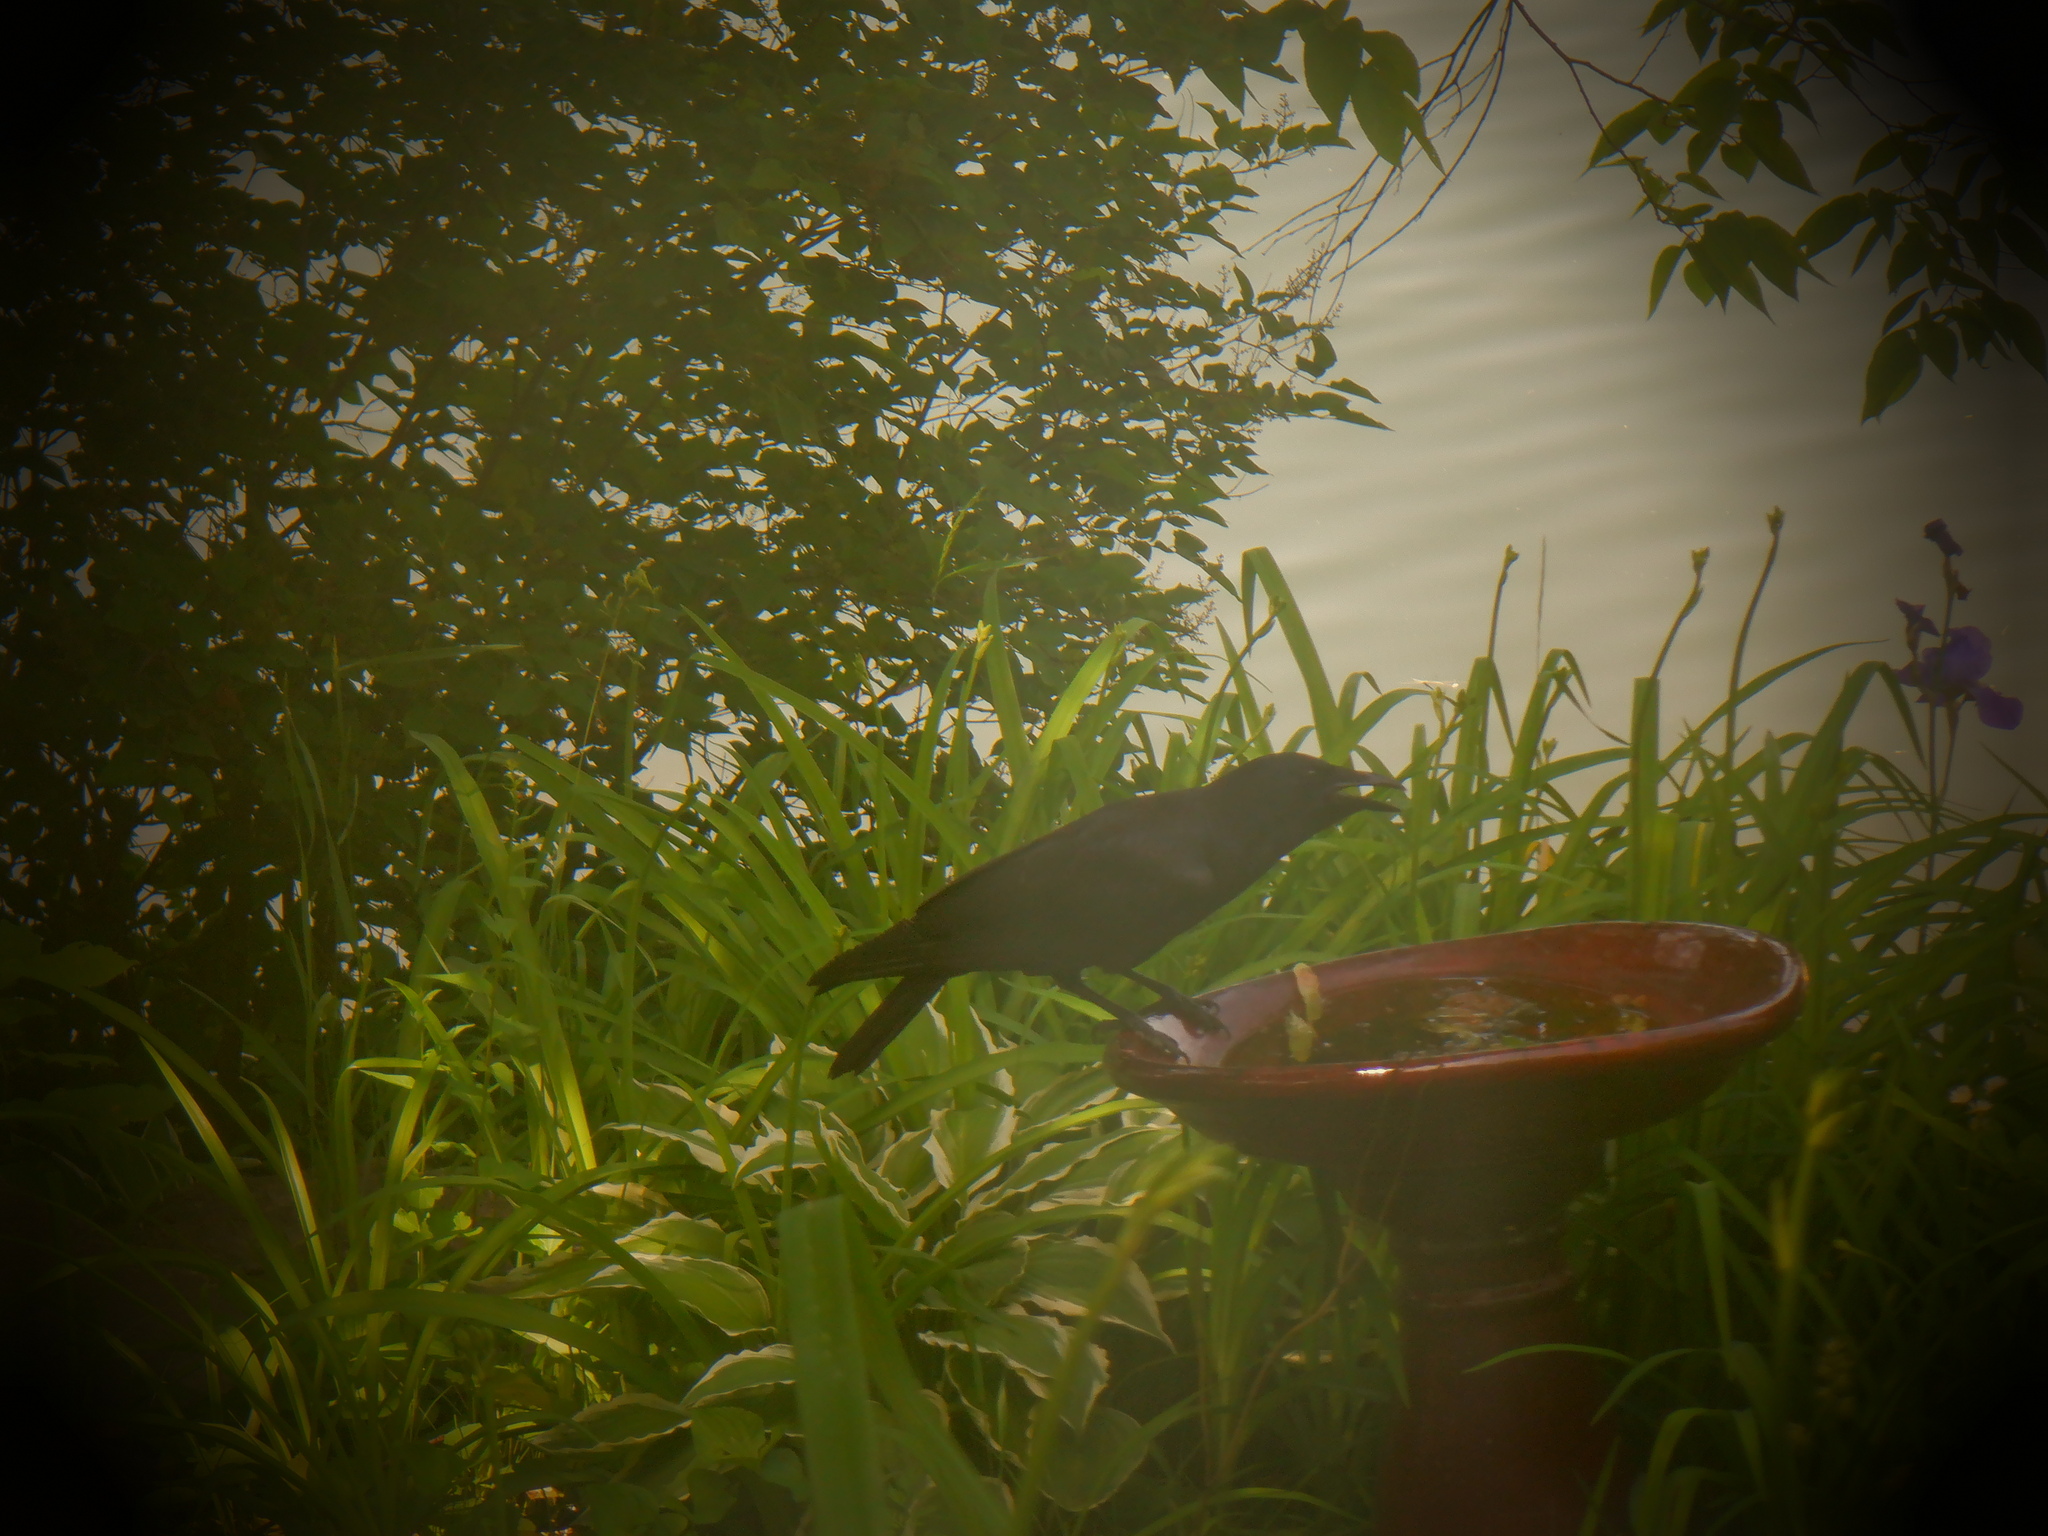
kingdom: Animalia
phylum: Chordata
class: Aves
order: Passeriformes
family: Corvidae
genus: Corvus
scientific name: Corvus brachyrhynchos
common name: American crow
